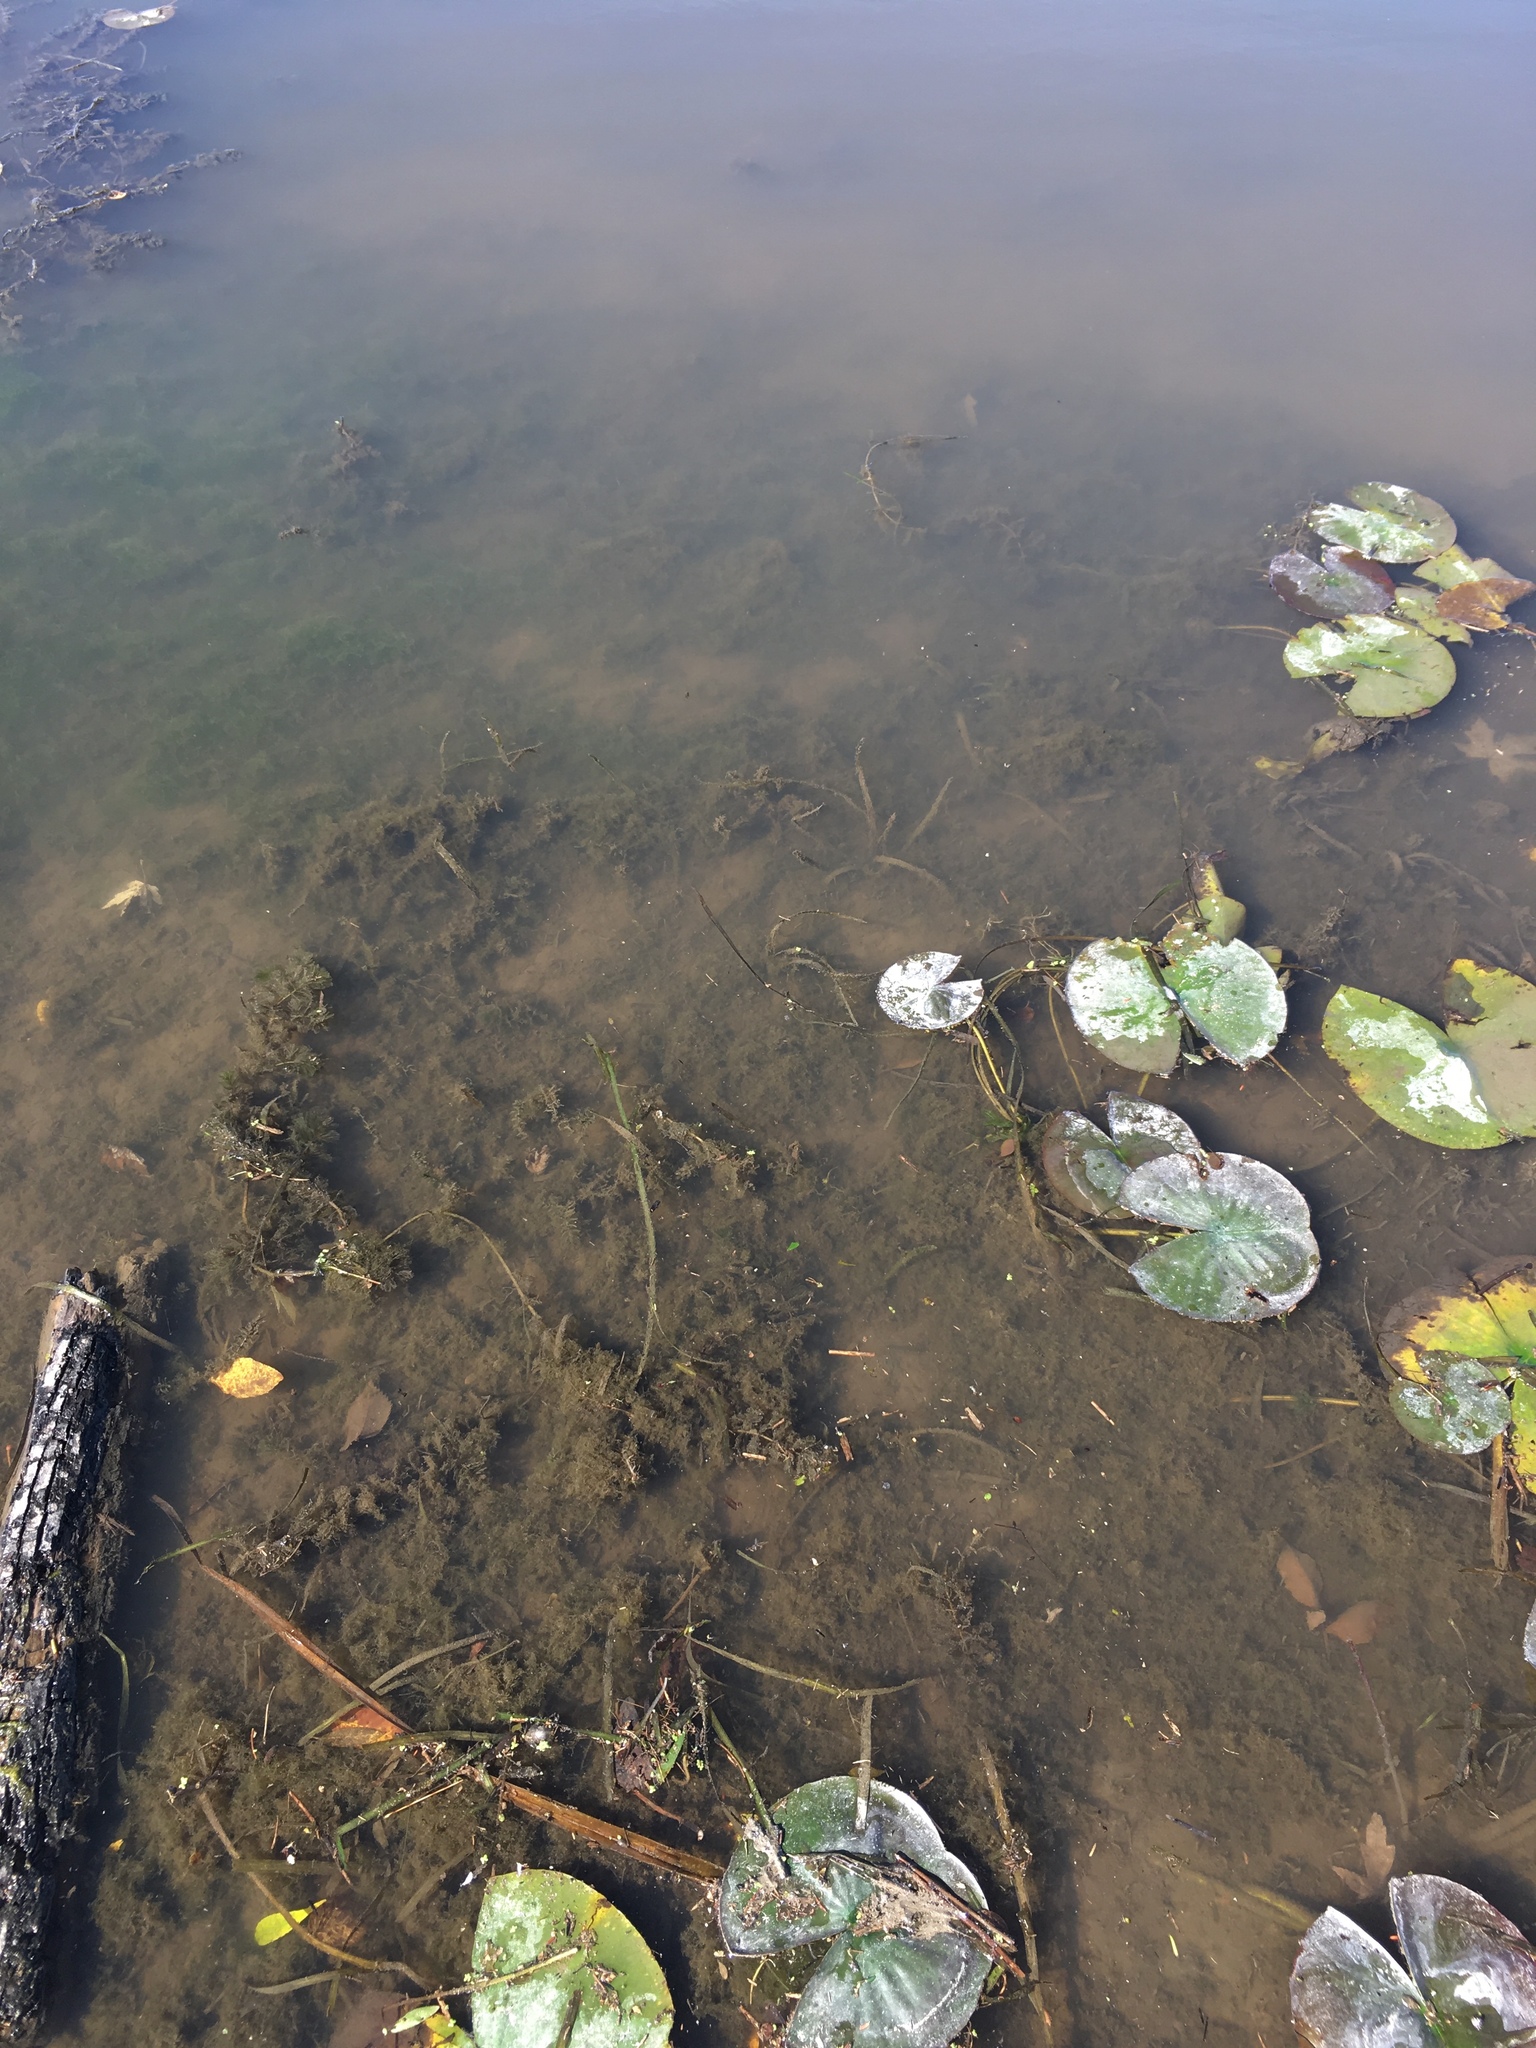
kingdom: Plantae
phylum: Tracheophyta
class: Liliopsida
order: Alismatales
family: Hydrocharitaceae
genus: Vallisneria
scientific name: Vallisneria americana
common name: American eelgrass
